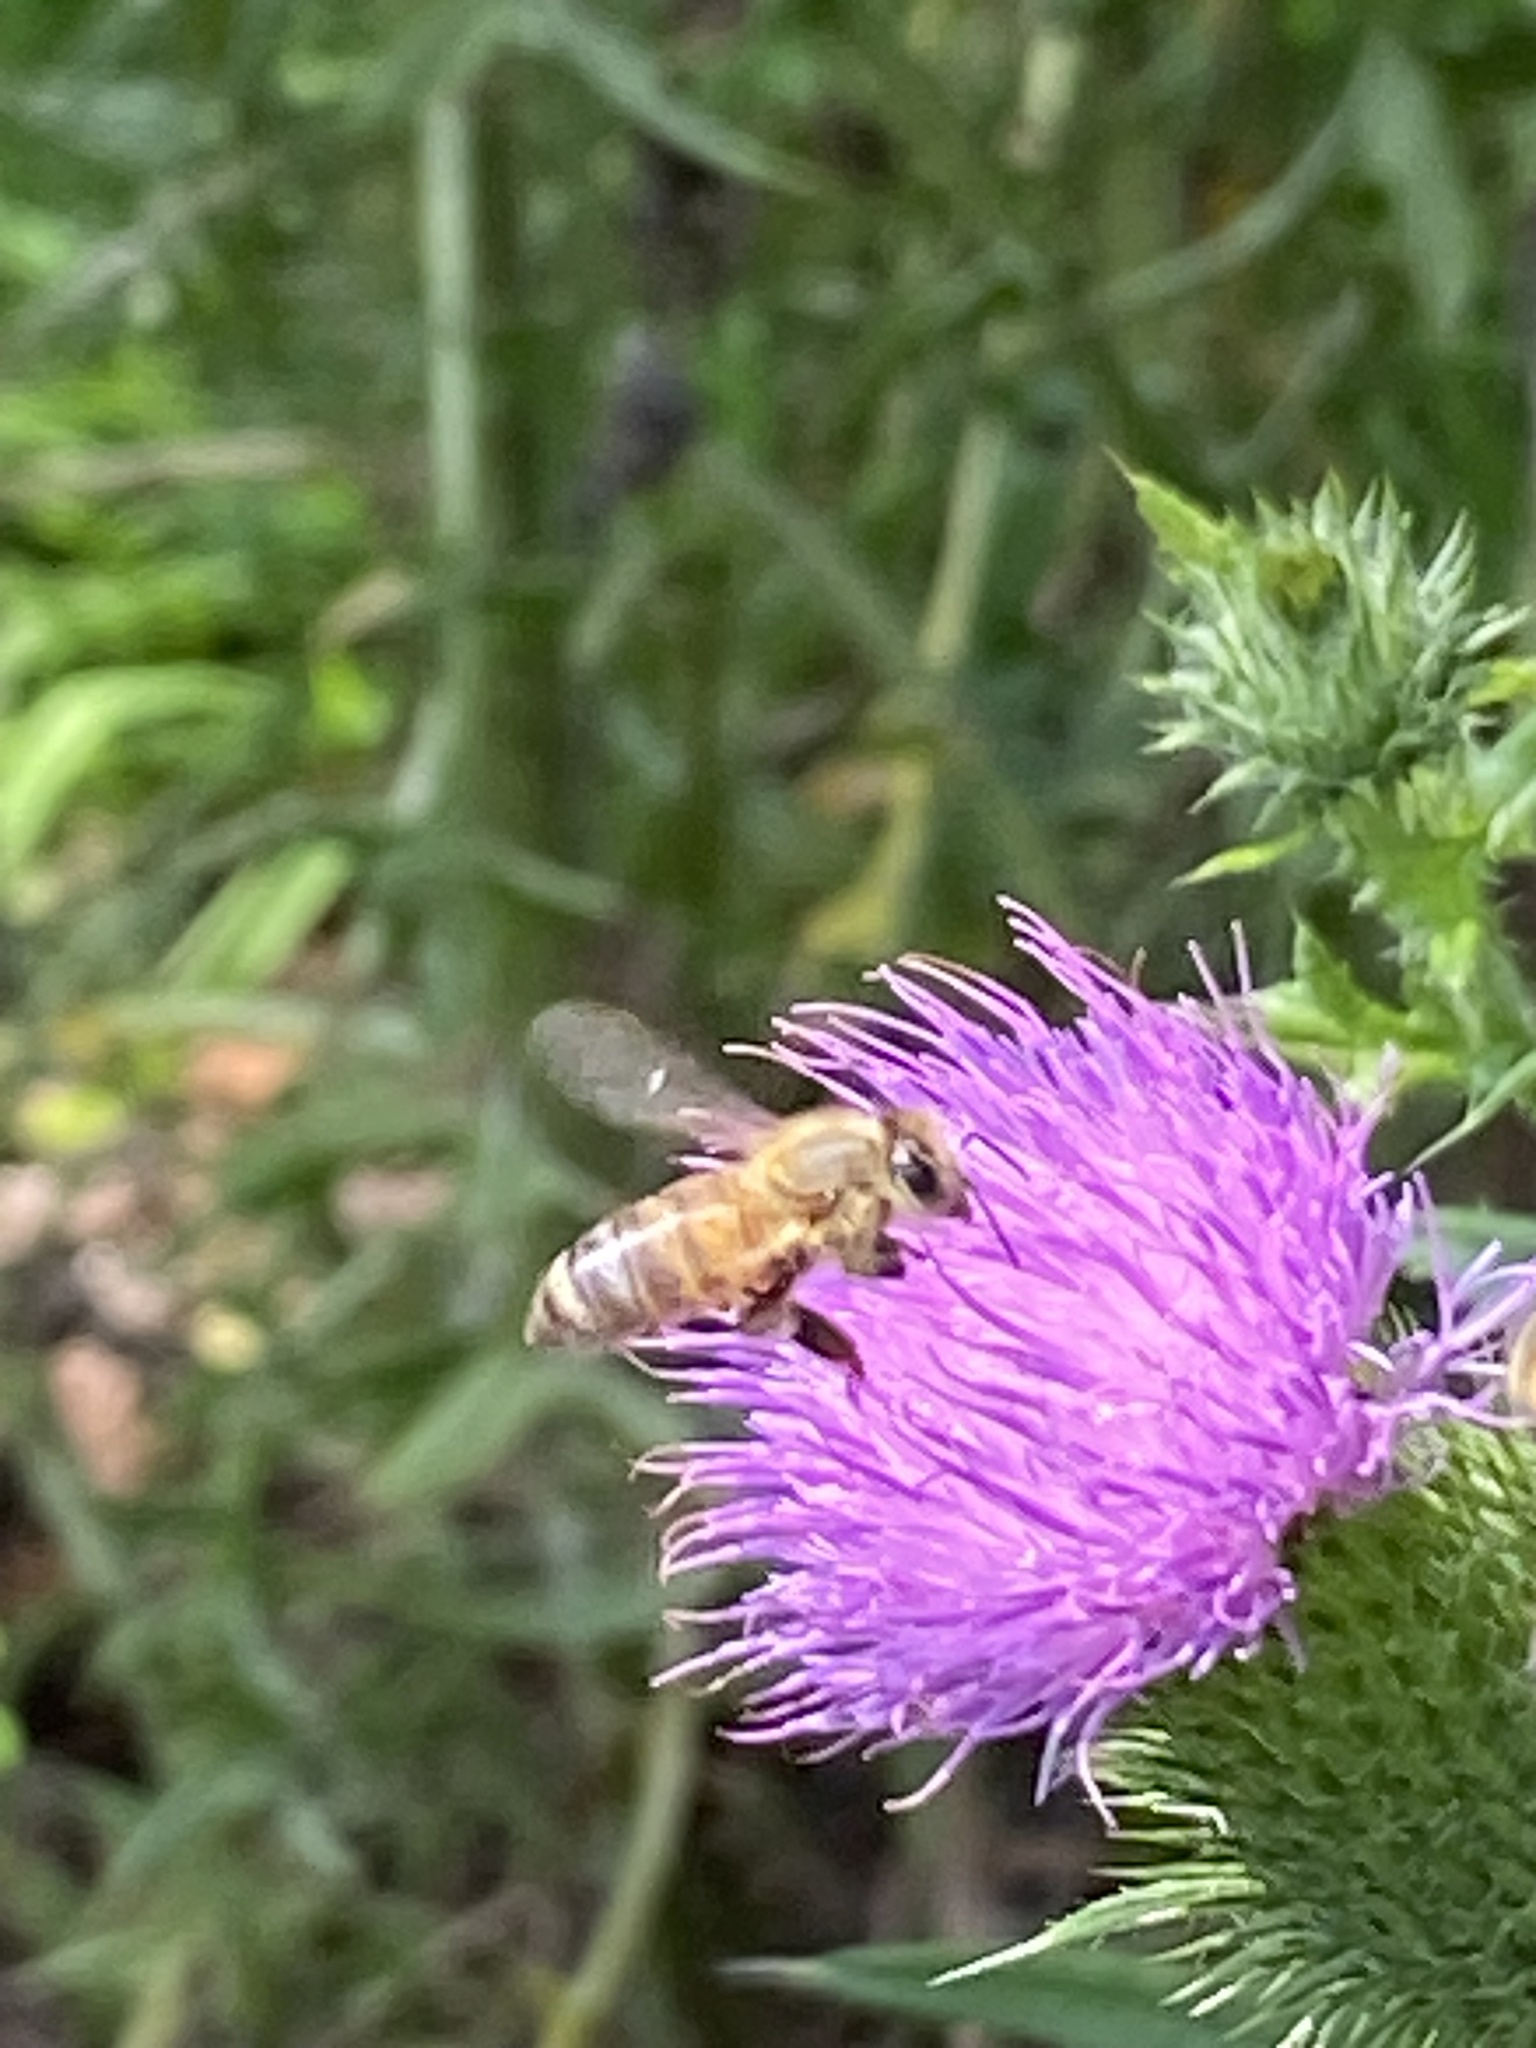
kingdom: Animalia
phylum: Arthropoda
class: Insecta
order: Hymenoptera
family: Apidae
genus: Apis
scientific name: Apis mellifera
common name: Honey bee
